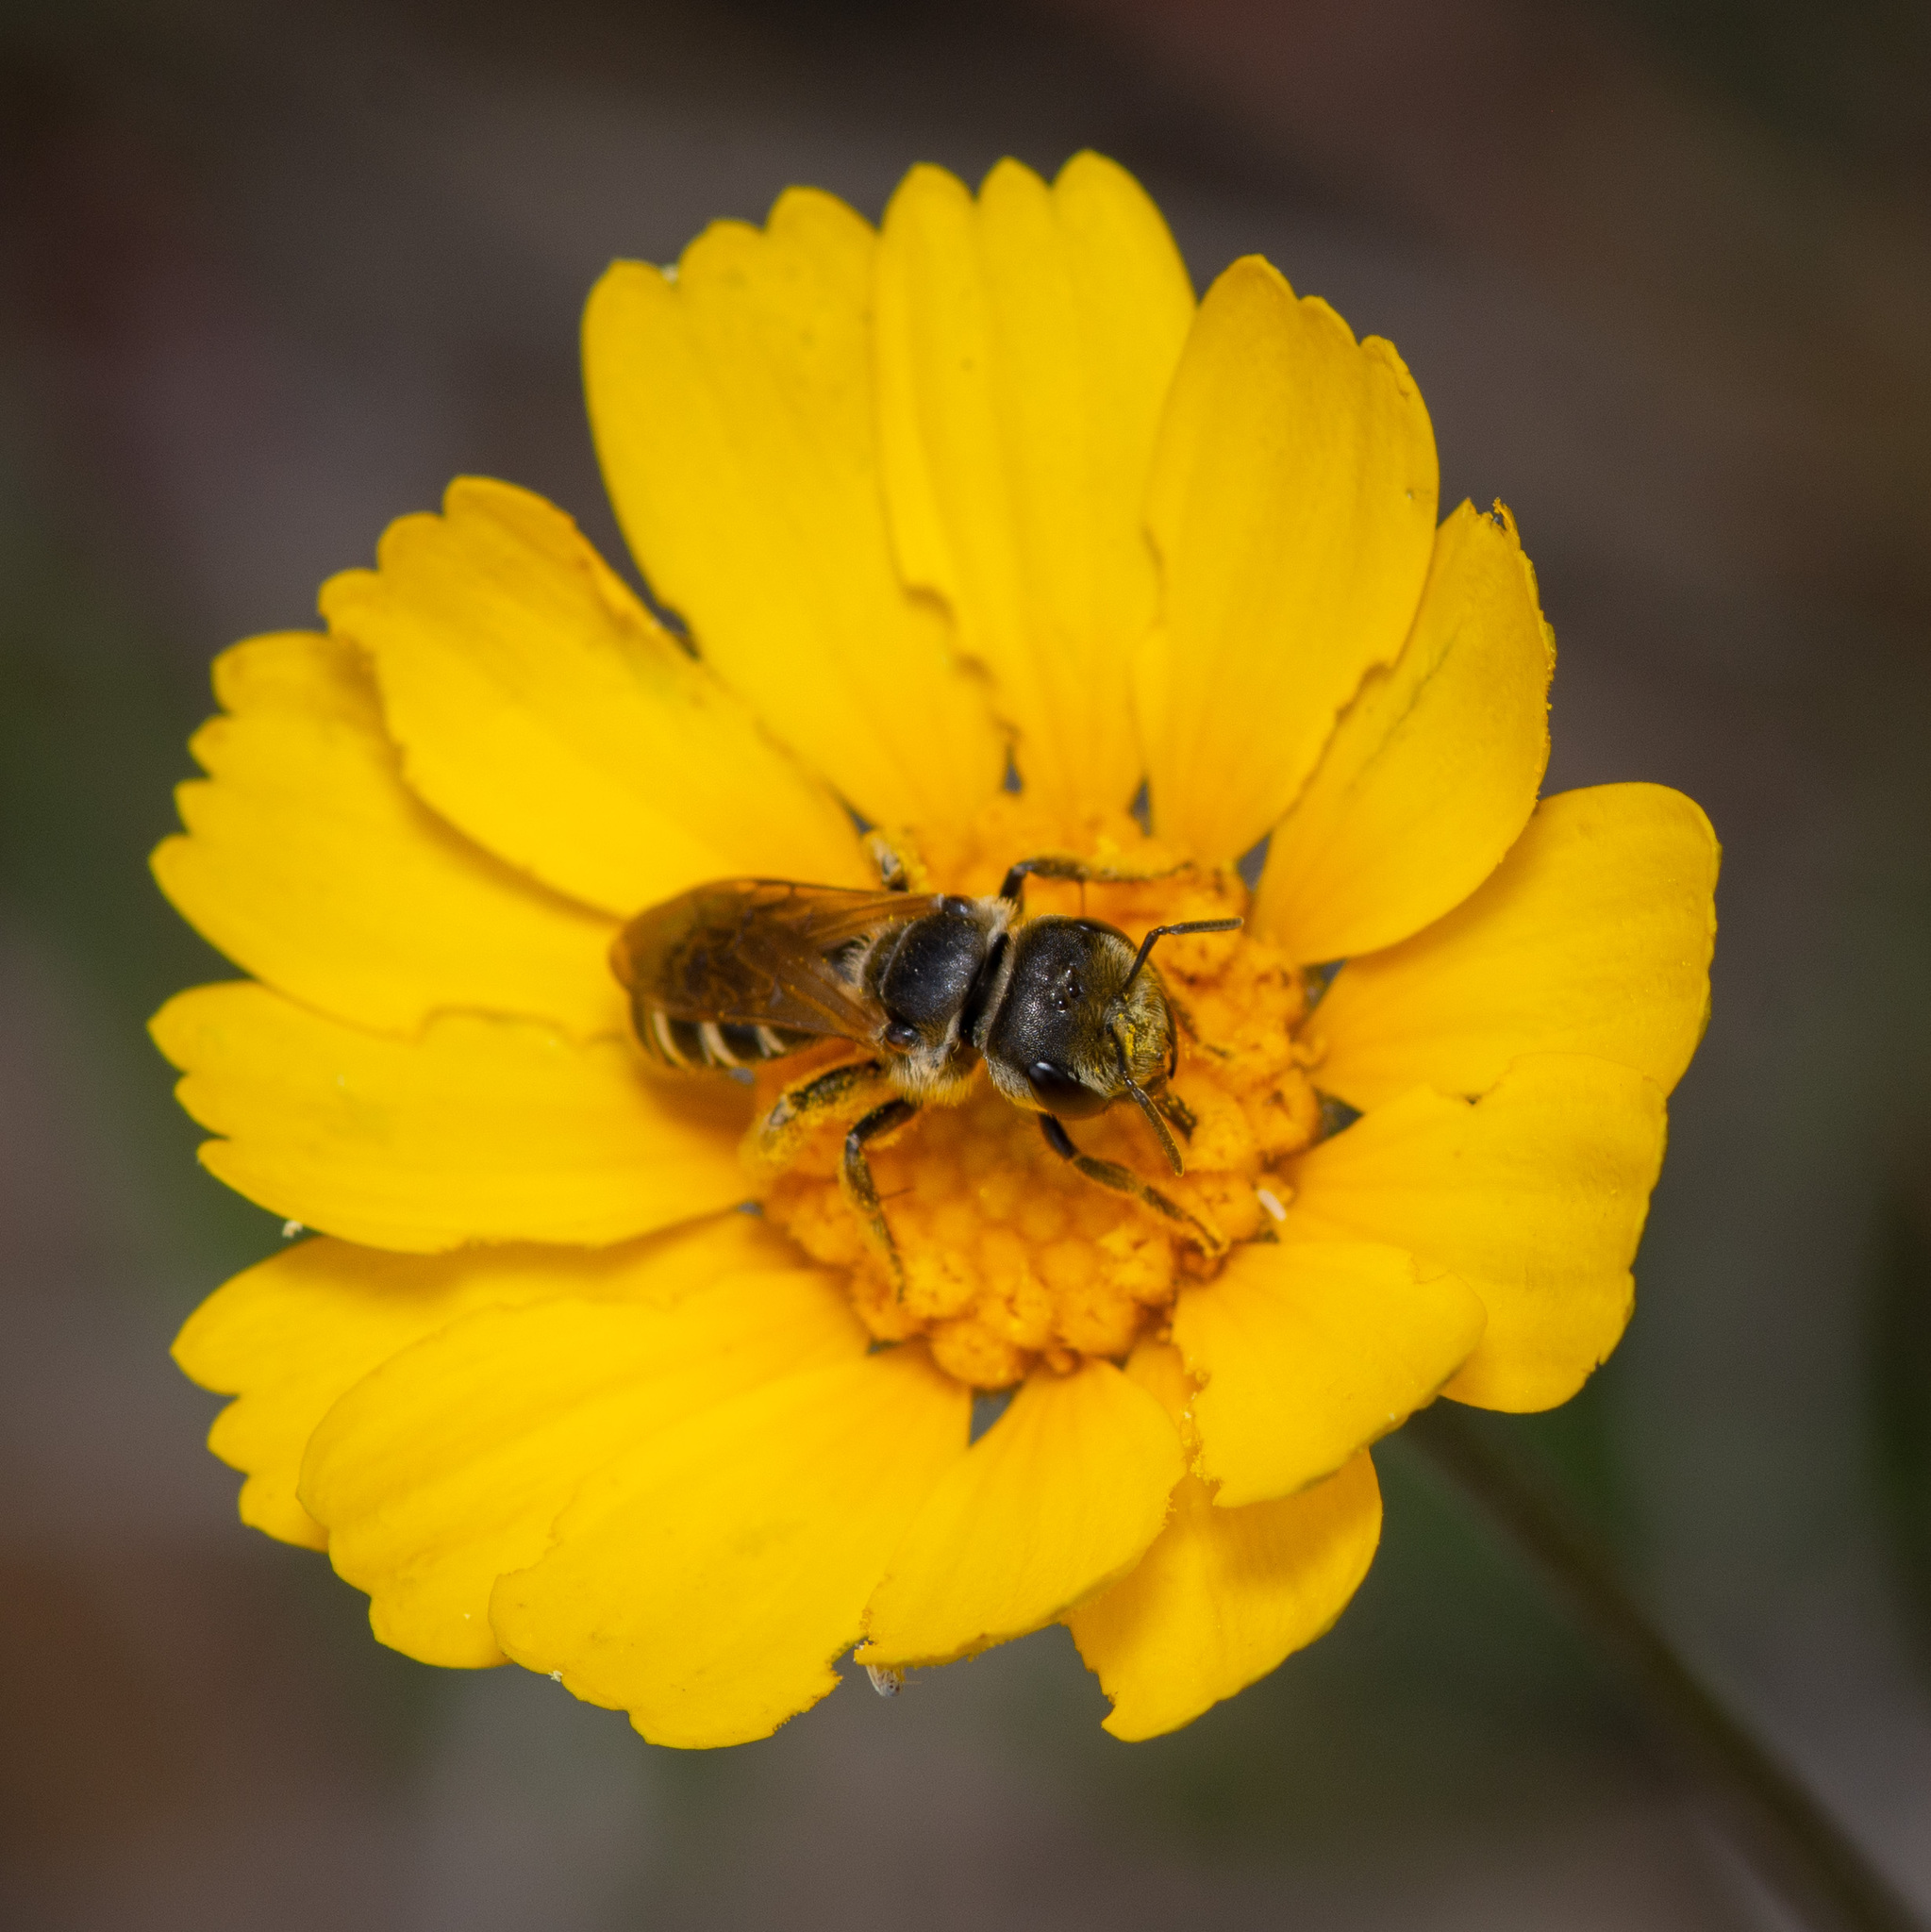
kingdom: Animalia
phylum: Arthropoda
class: Insecta
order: Hymenoptera
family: Halictidae
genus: Halictus
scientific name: Halictus ligatus
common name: Ligated furrow bee
